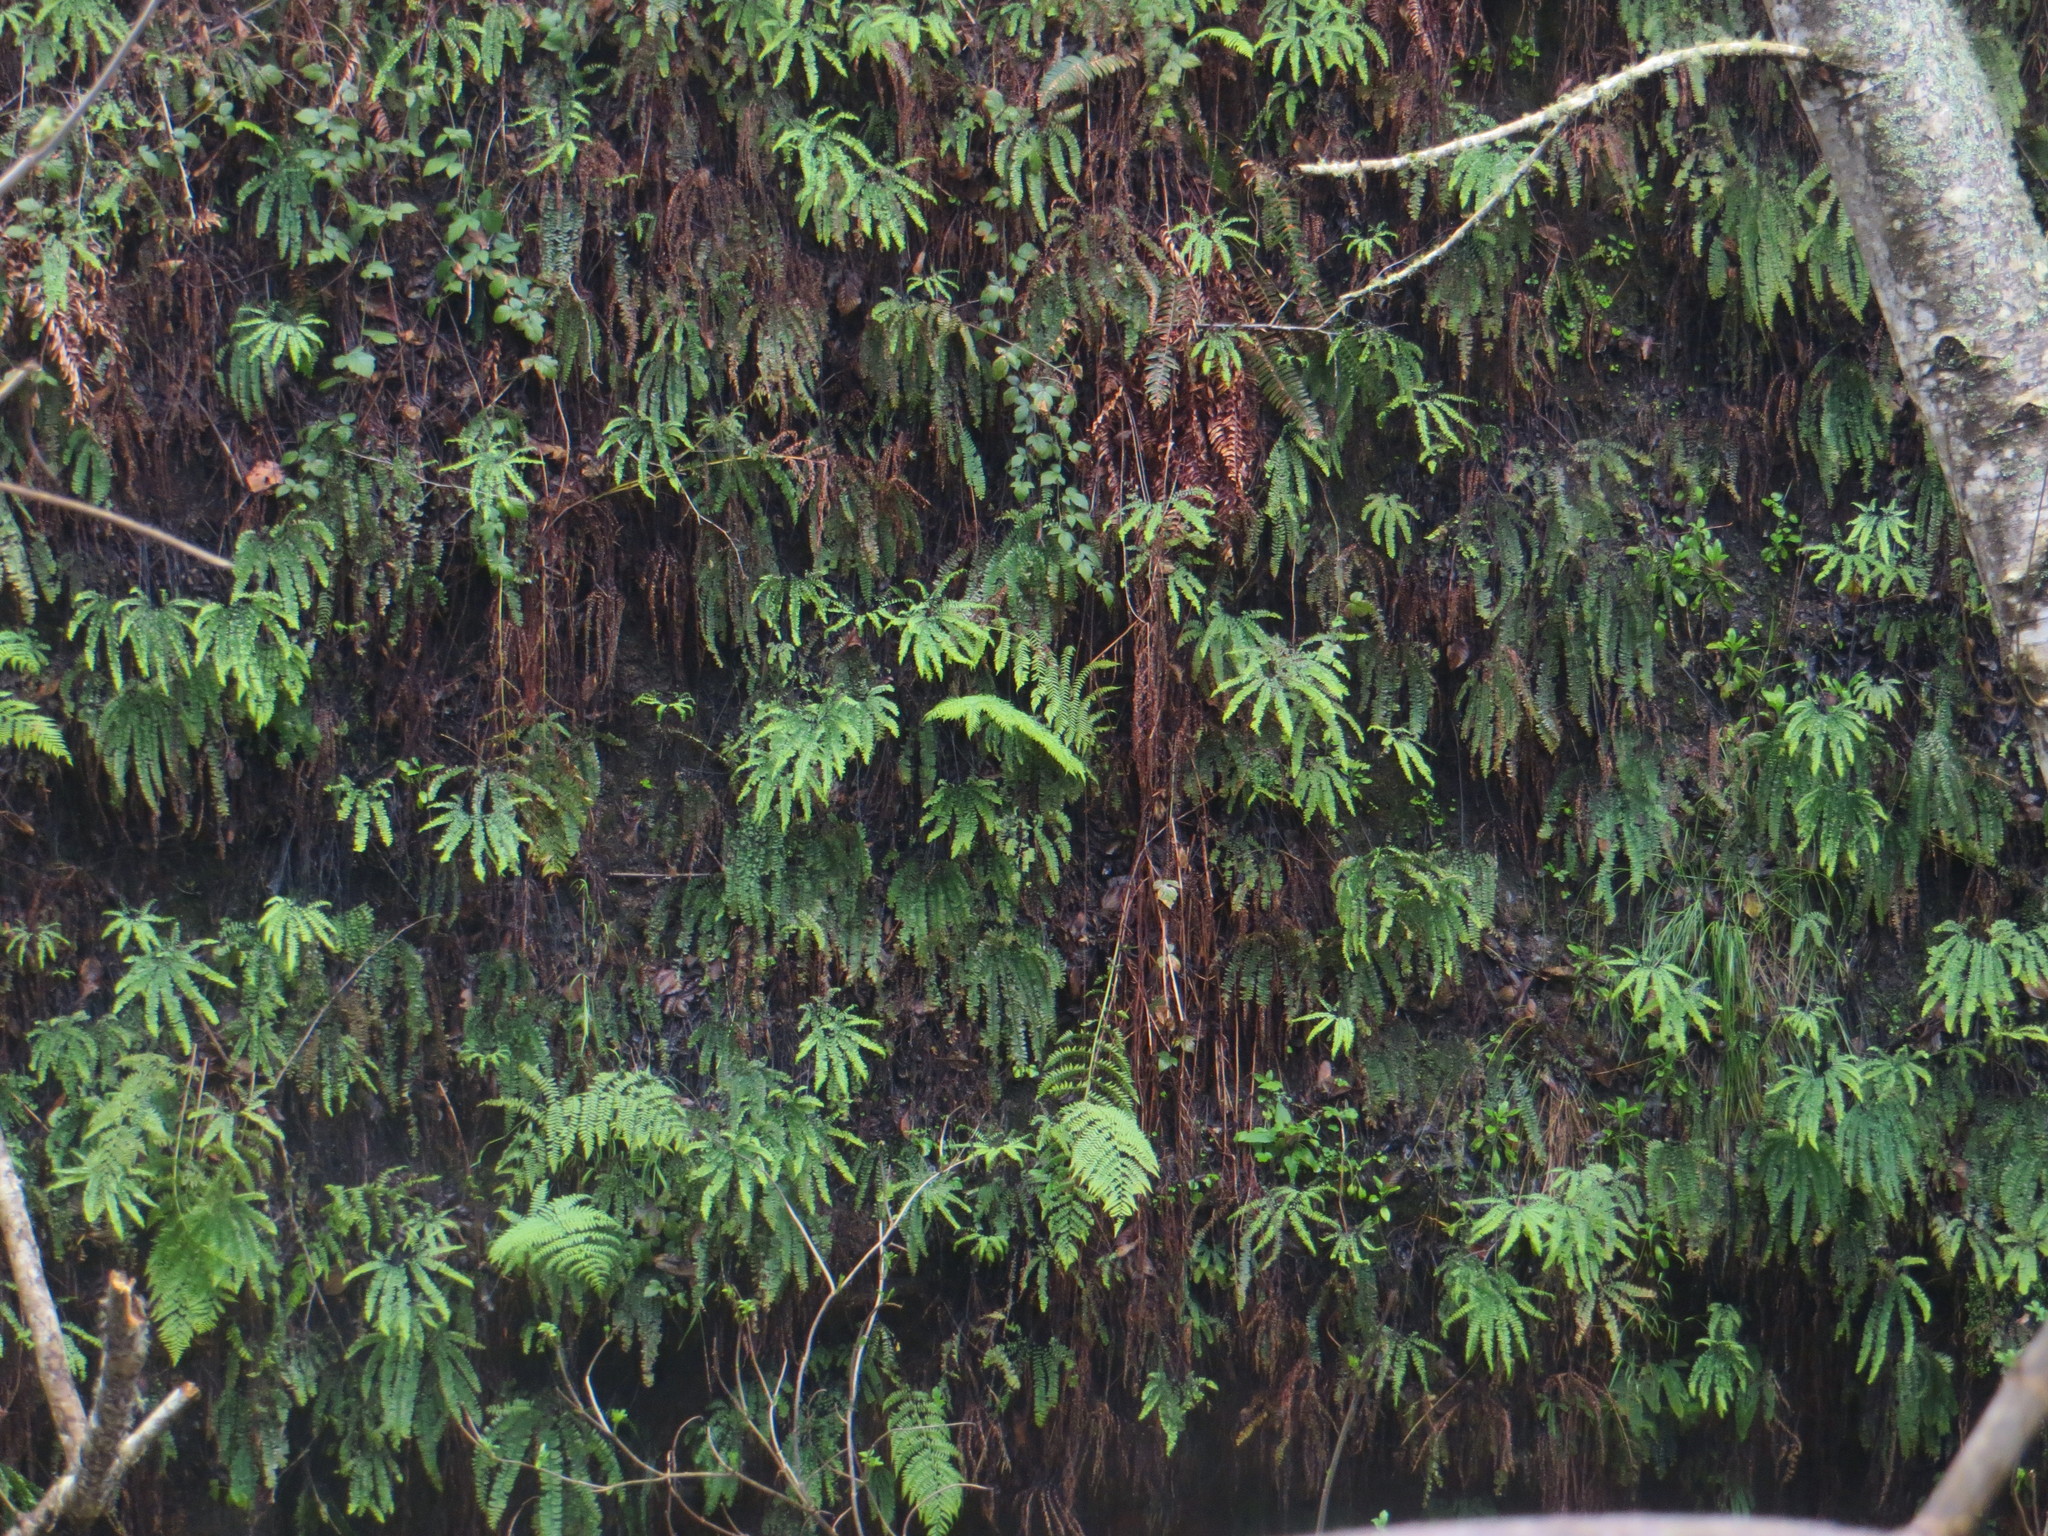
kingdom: Plantae
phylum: Tracheophyta
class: Polypodiopsida
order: Polypodiales
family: Pteridaceae
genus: Adiantum
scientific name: Adiantum aleuticum
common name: Aleutian maidenhair fern
